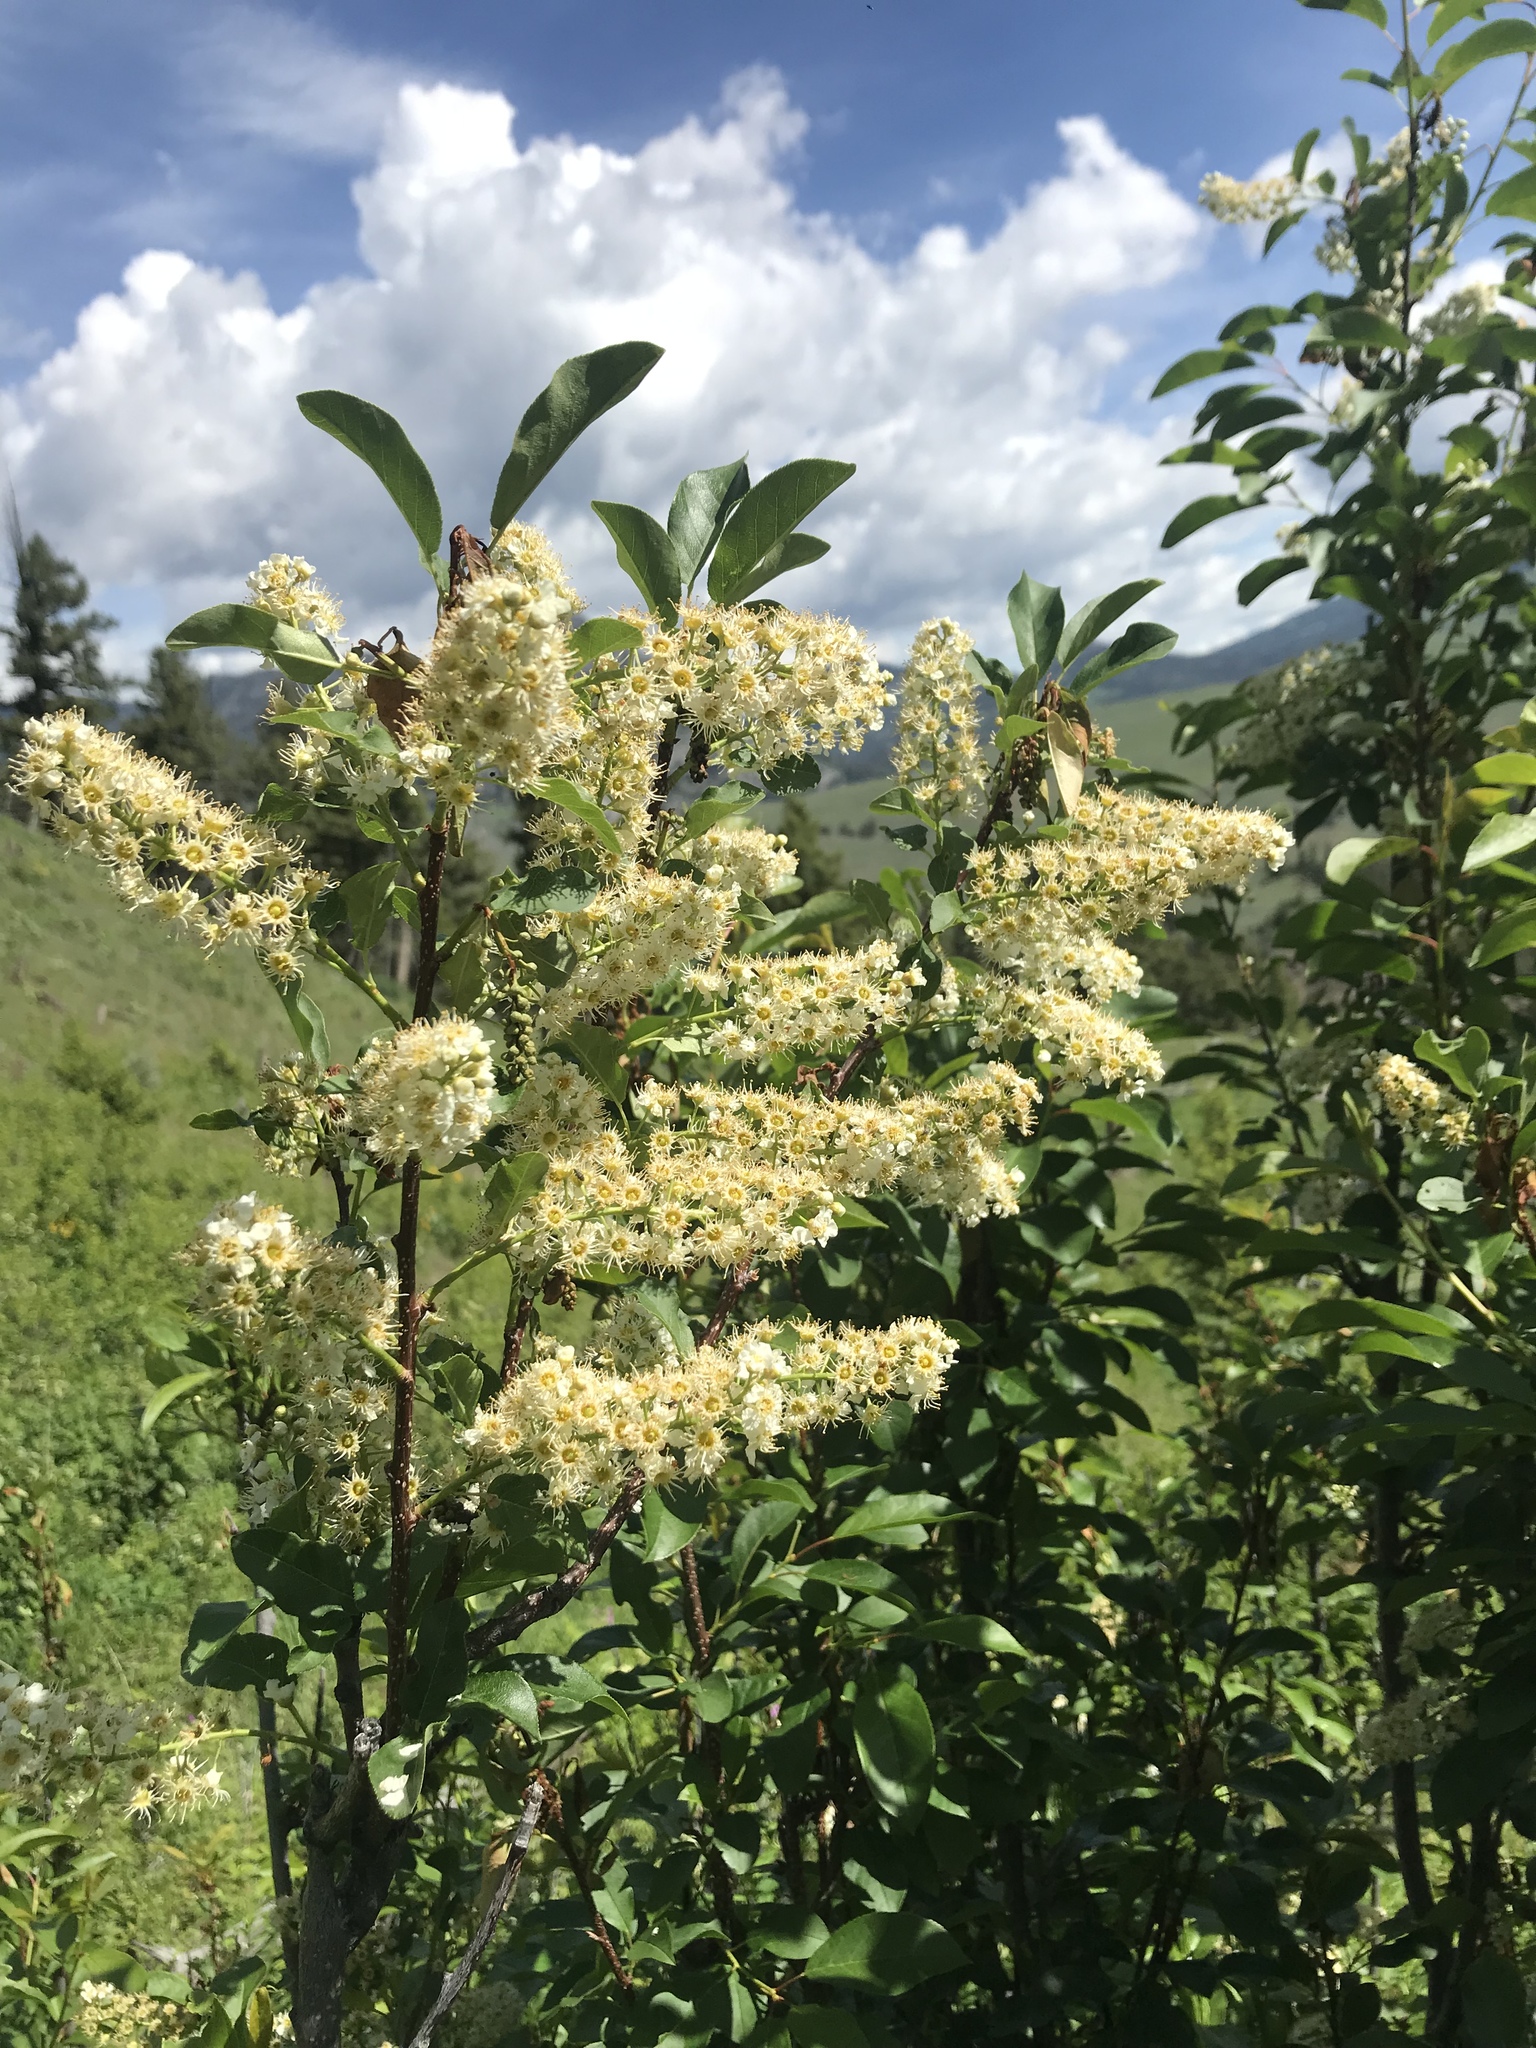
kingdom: Plantae
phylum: Tracheophyta
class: Magnoliopsida
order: Rosales
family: Rosaceae
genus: Prunus
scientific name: Prunus virginiana
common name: Chokecherry
